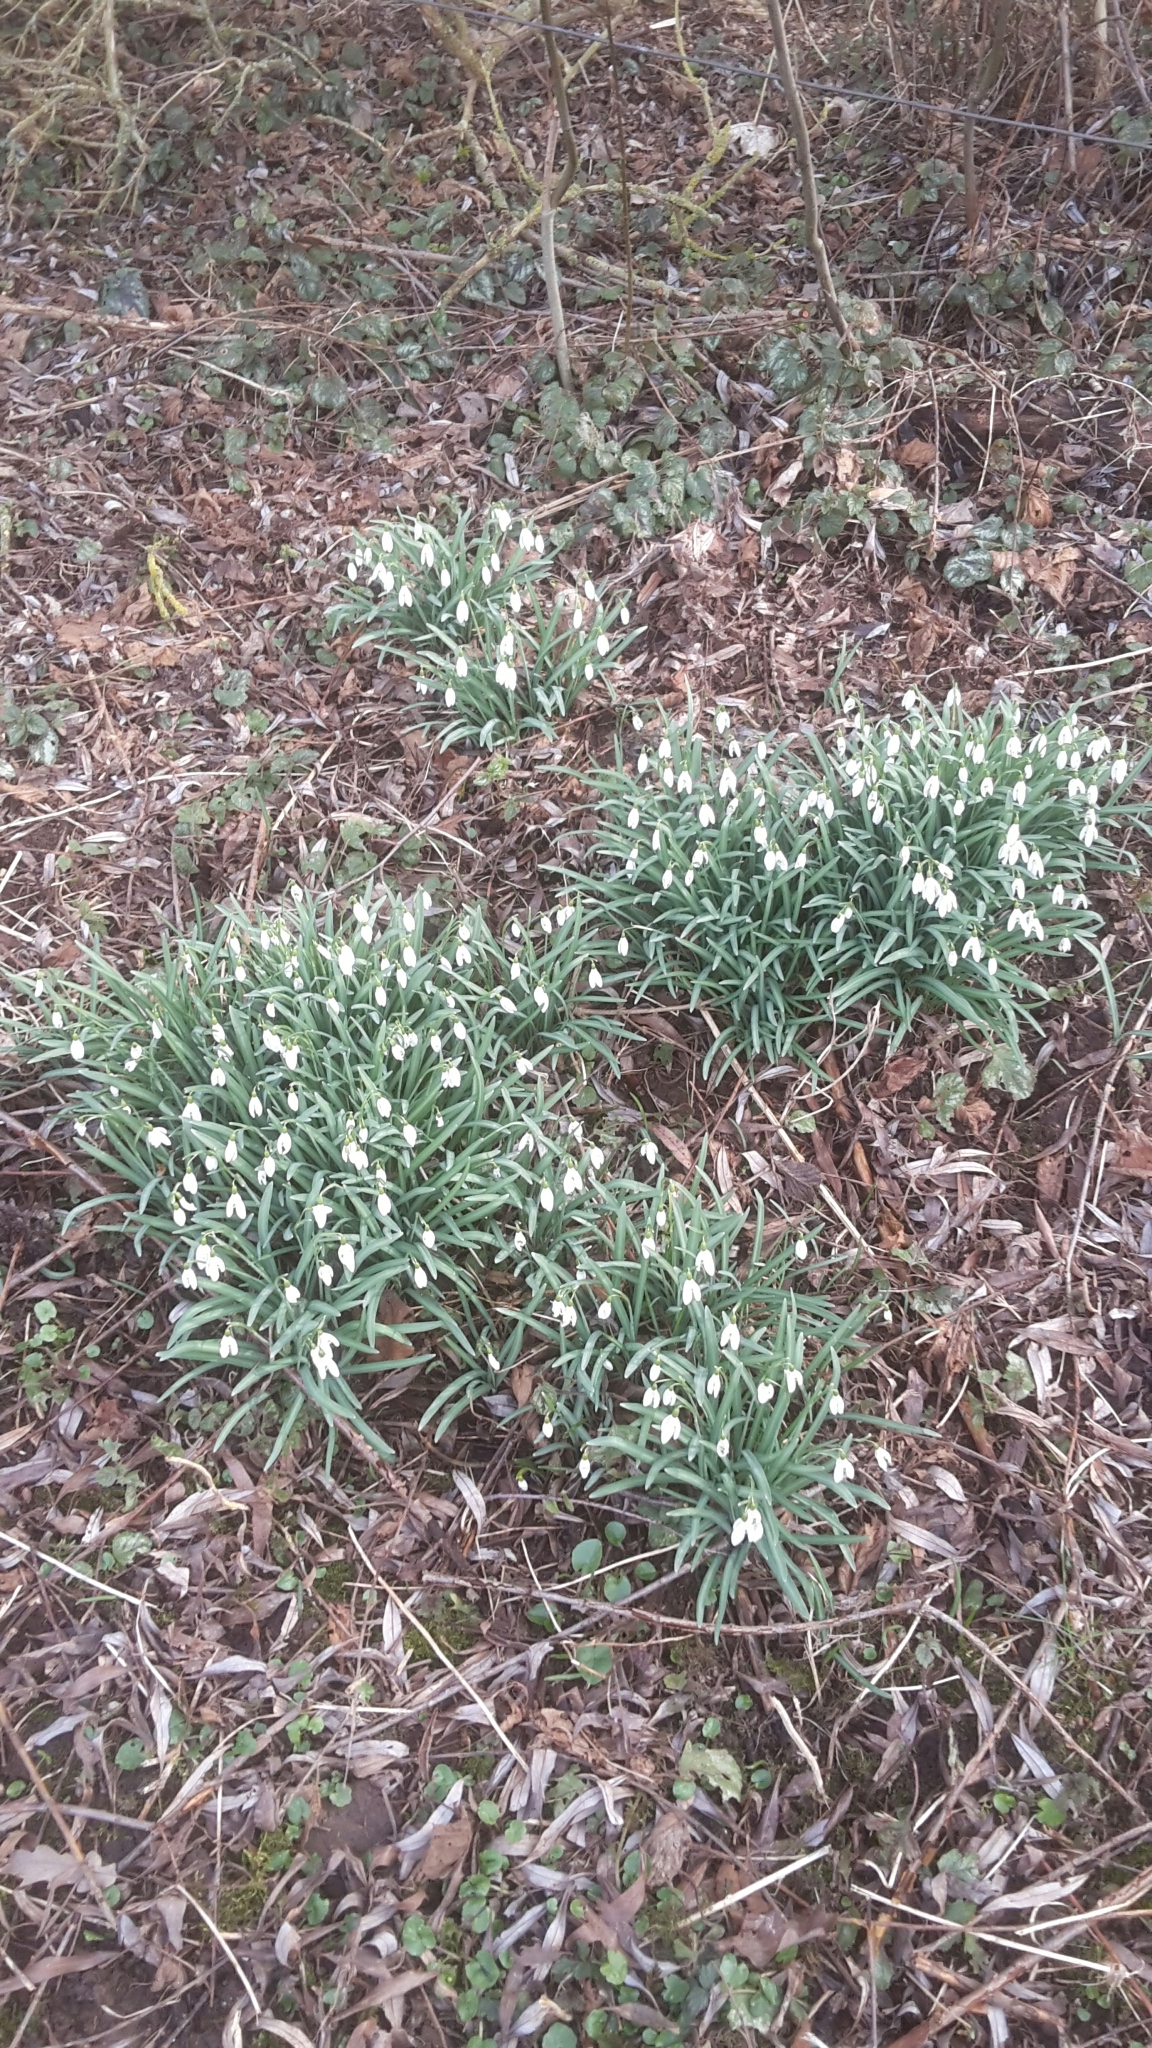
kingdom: Plantae
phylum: Tracheophyta
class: Liliopsida
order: Asparagales
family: Amaryllidaceae
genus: Galanthus
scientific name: Galanthus nivalis
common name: Snowdrop
